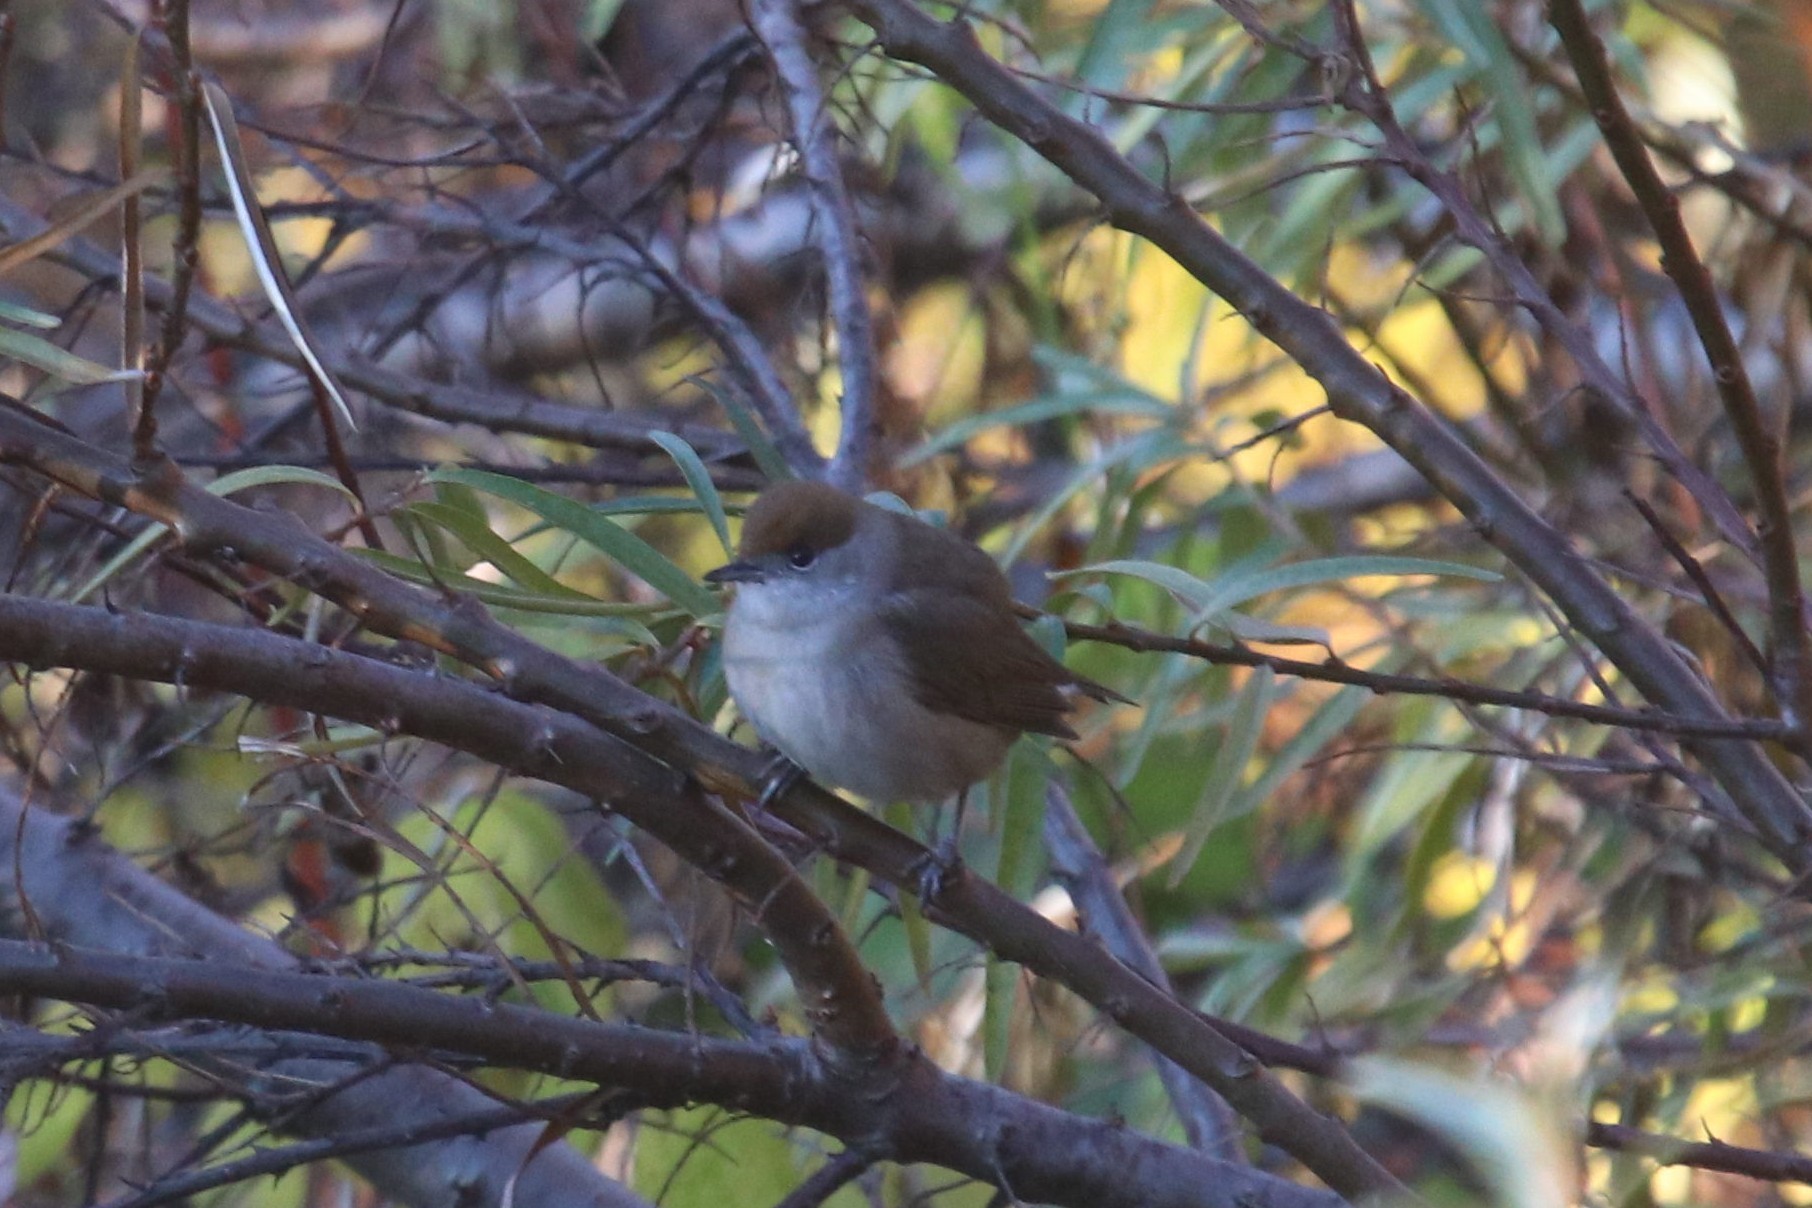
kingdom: Animalia
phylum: Chordata
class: Aves
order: Passeriformes
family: Sylviidae
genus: Sylvia
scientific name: Sylvia atricapilla
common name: Eurasian blackcap
